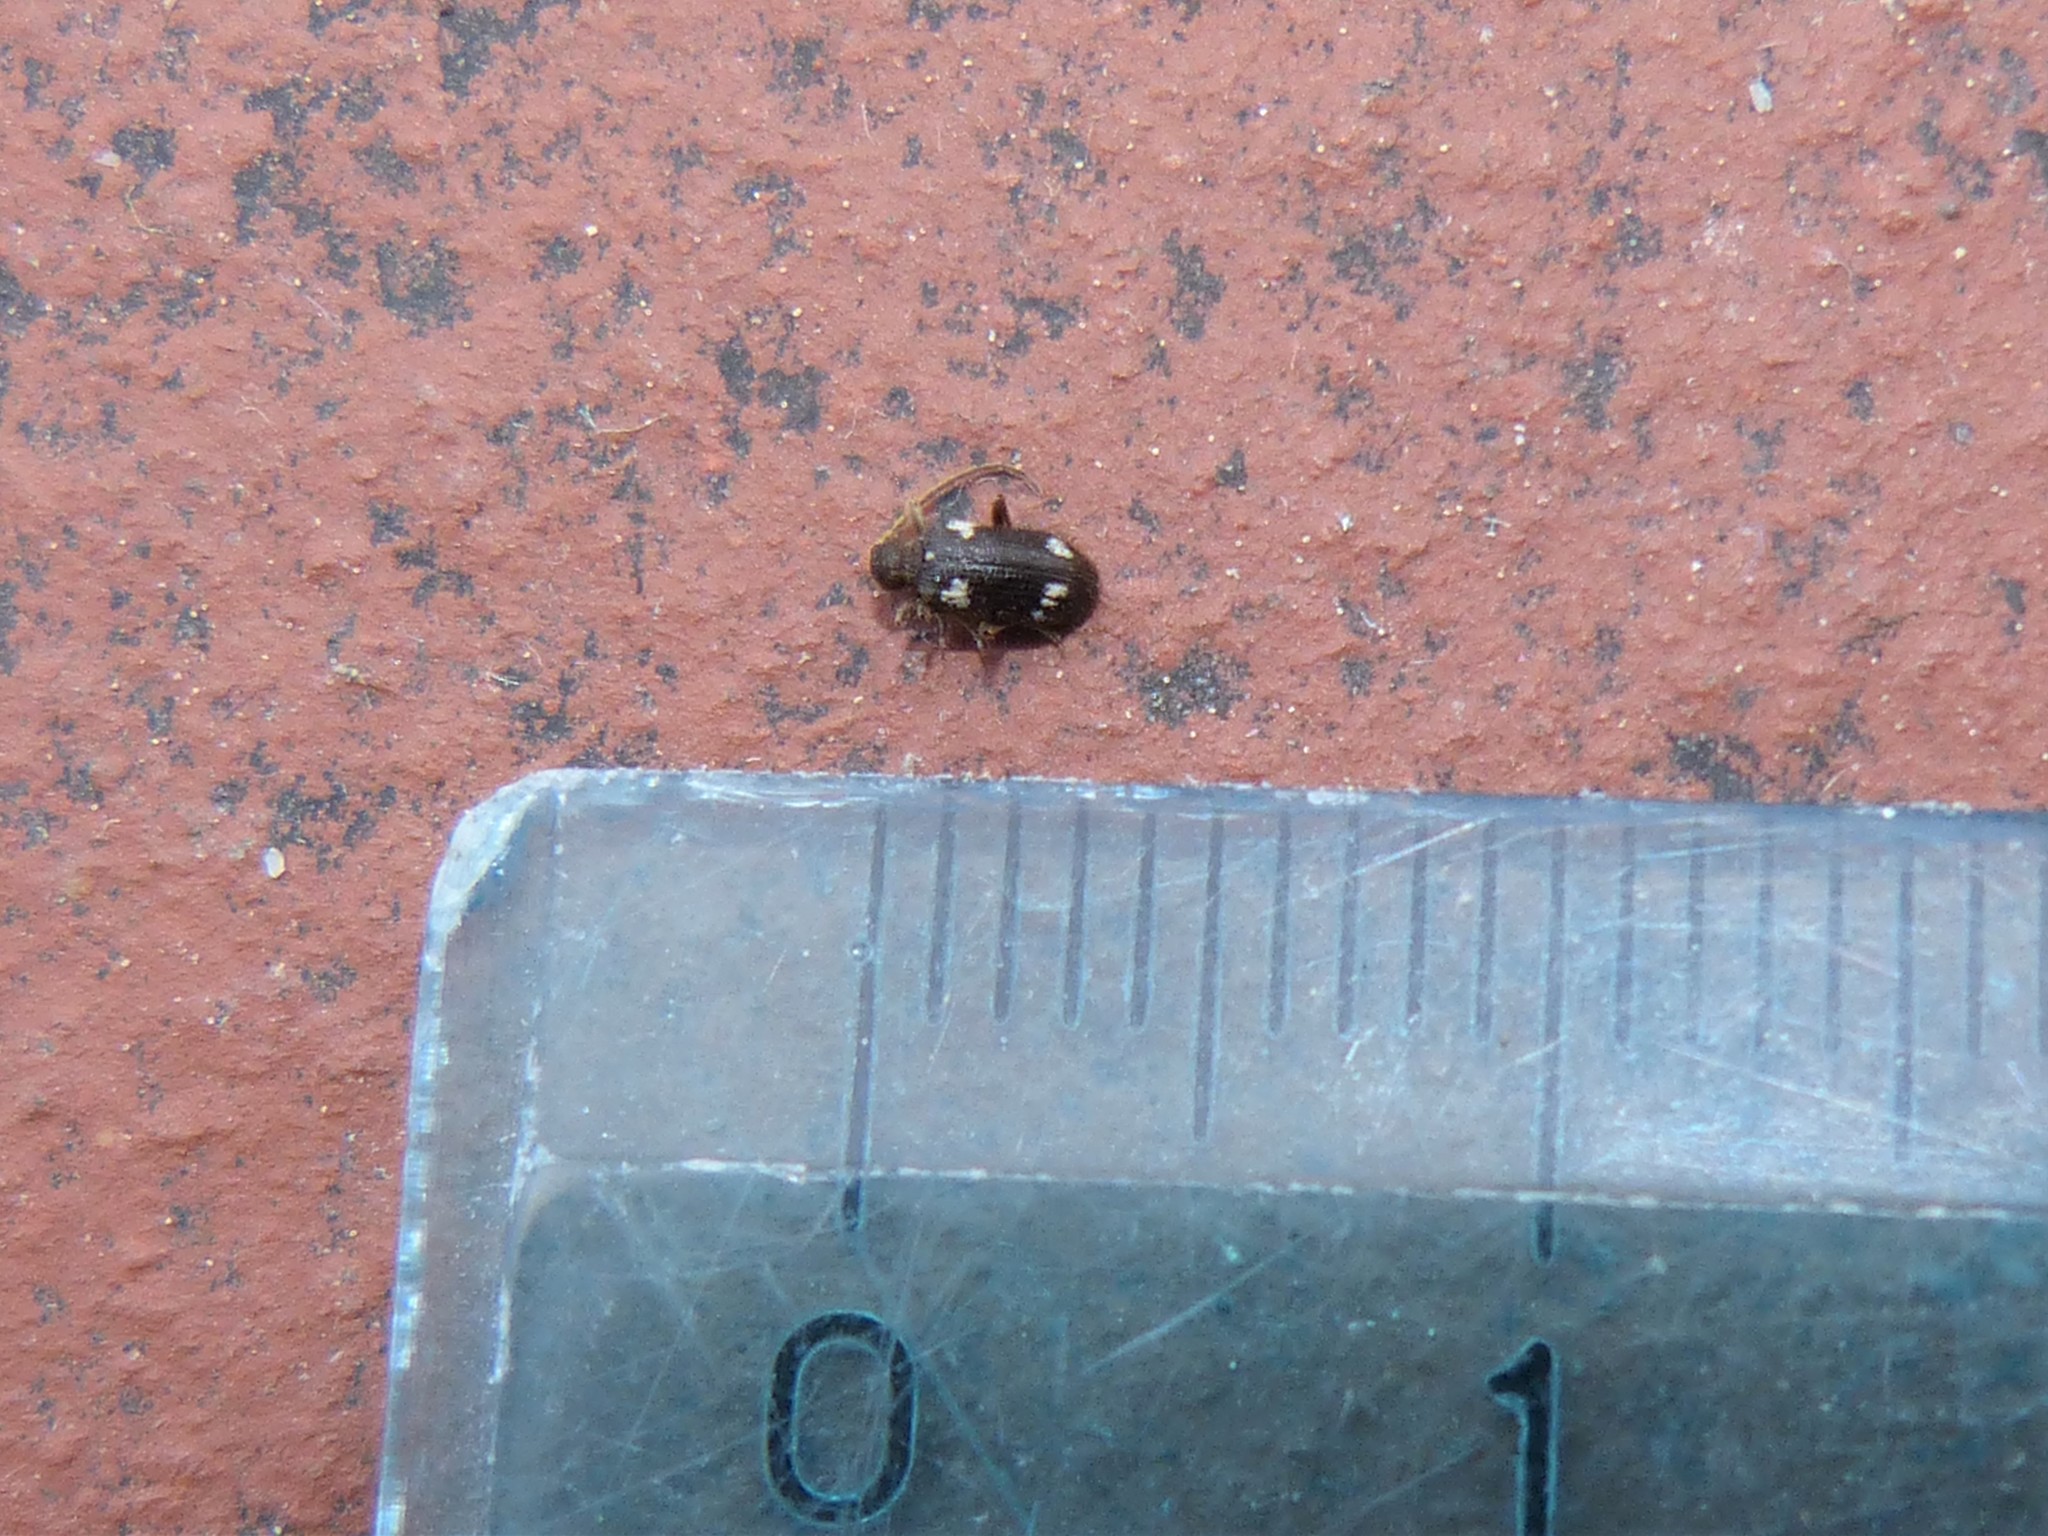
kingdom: Animalia
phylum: Arthropoda
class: Insecta
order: Coleoptera
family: Ptinidae
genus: Ptinus
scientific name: Ptinus sexpunctatus
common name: Six-spotted spider beetle
